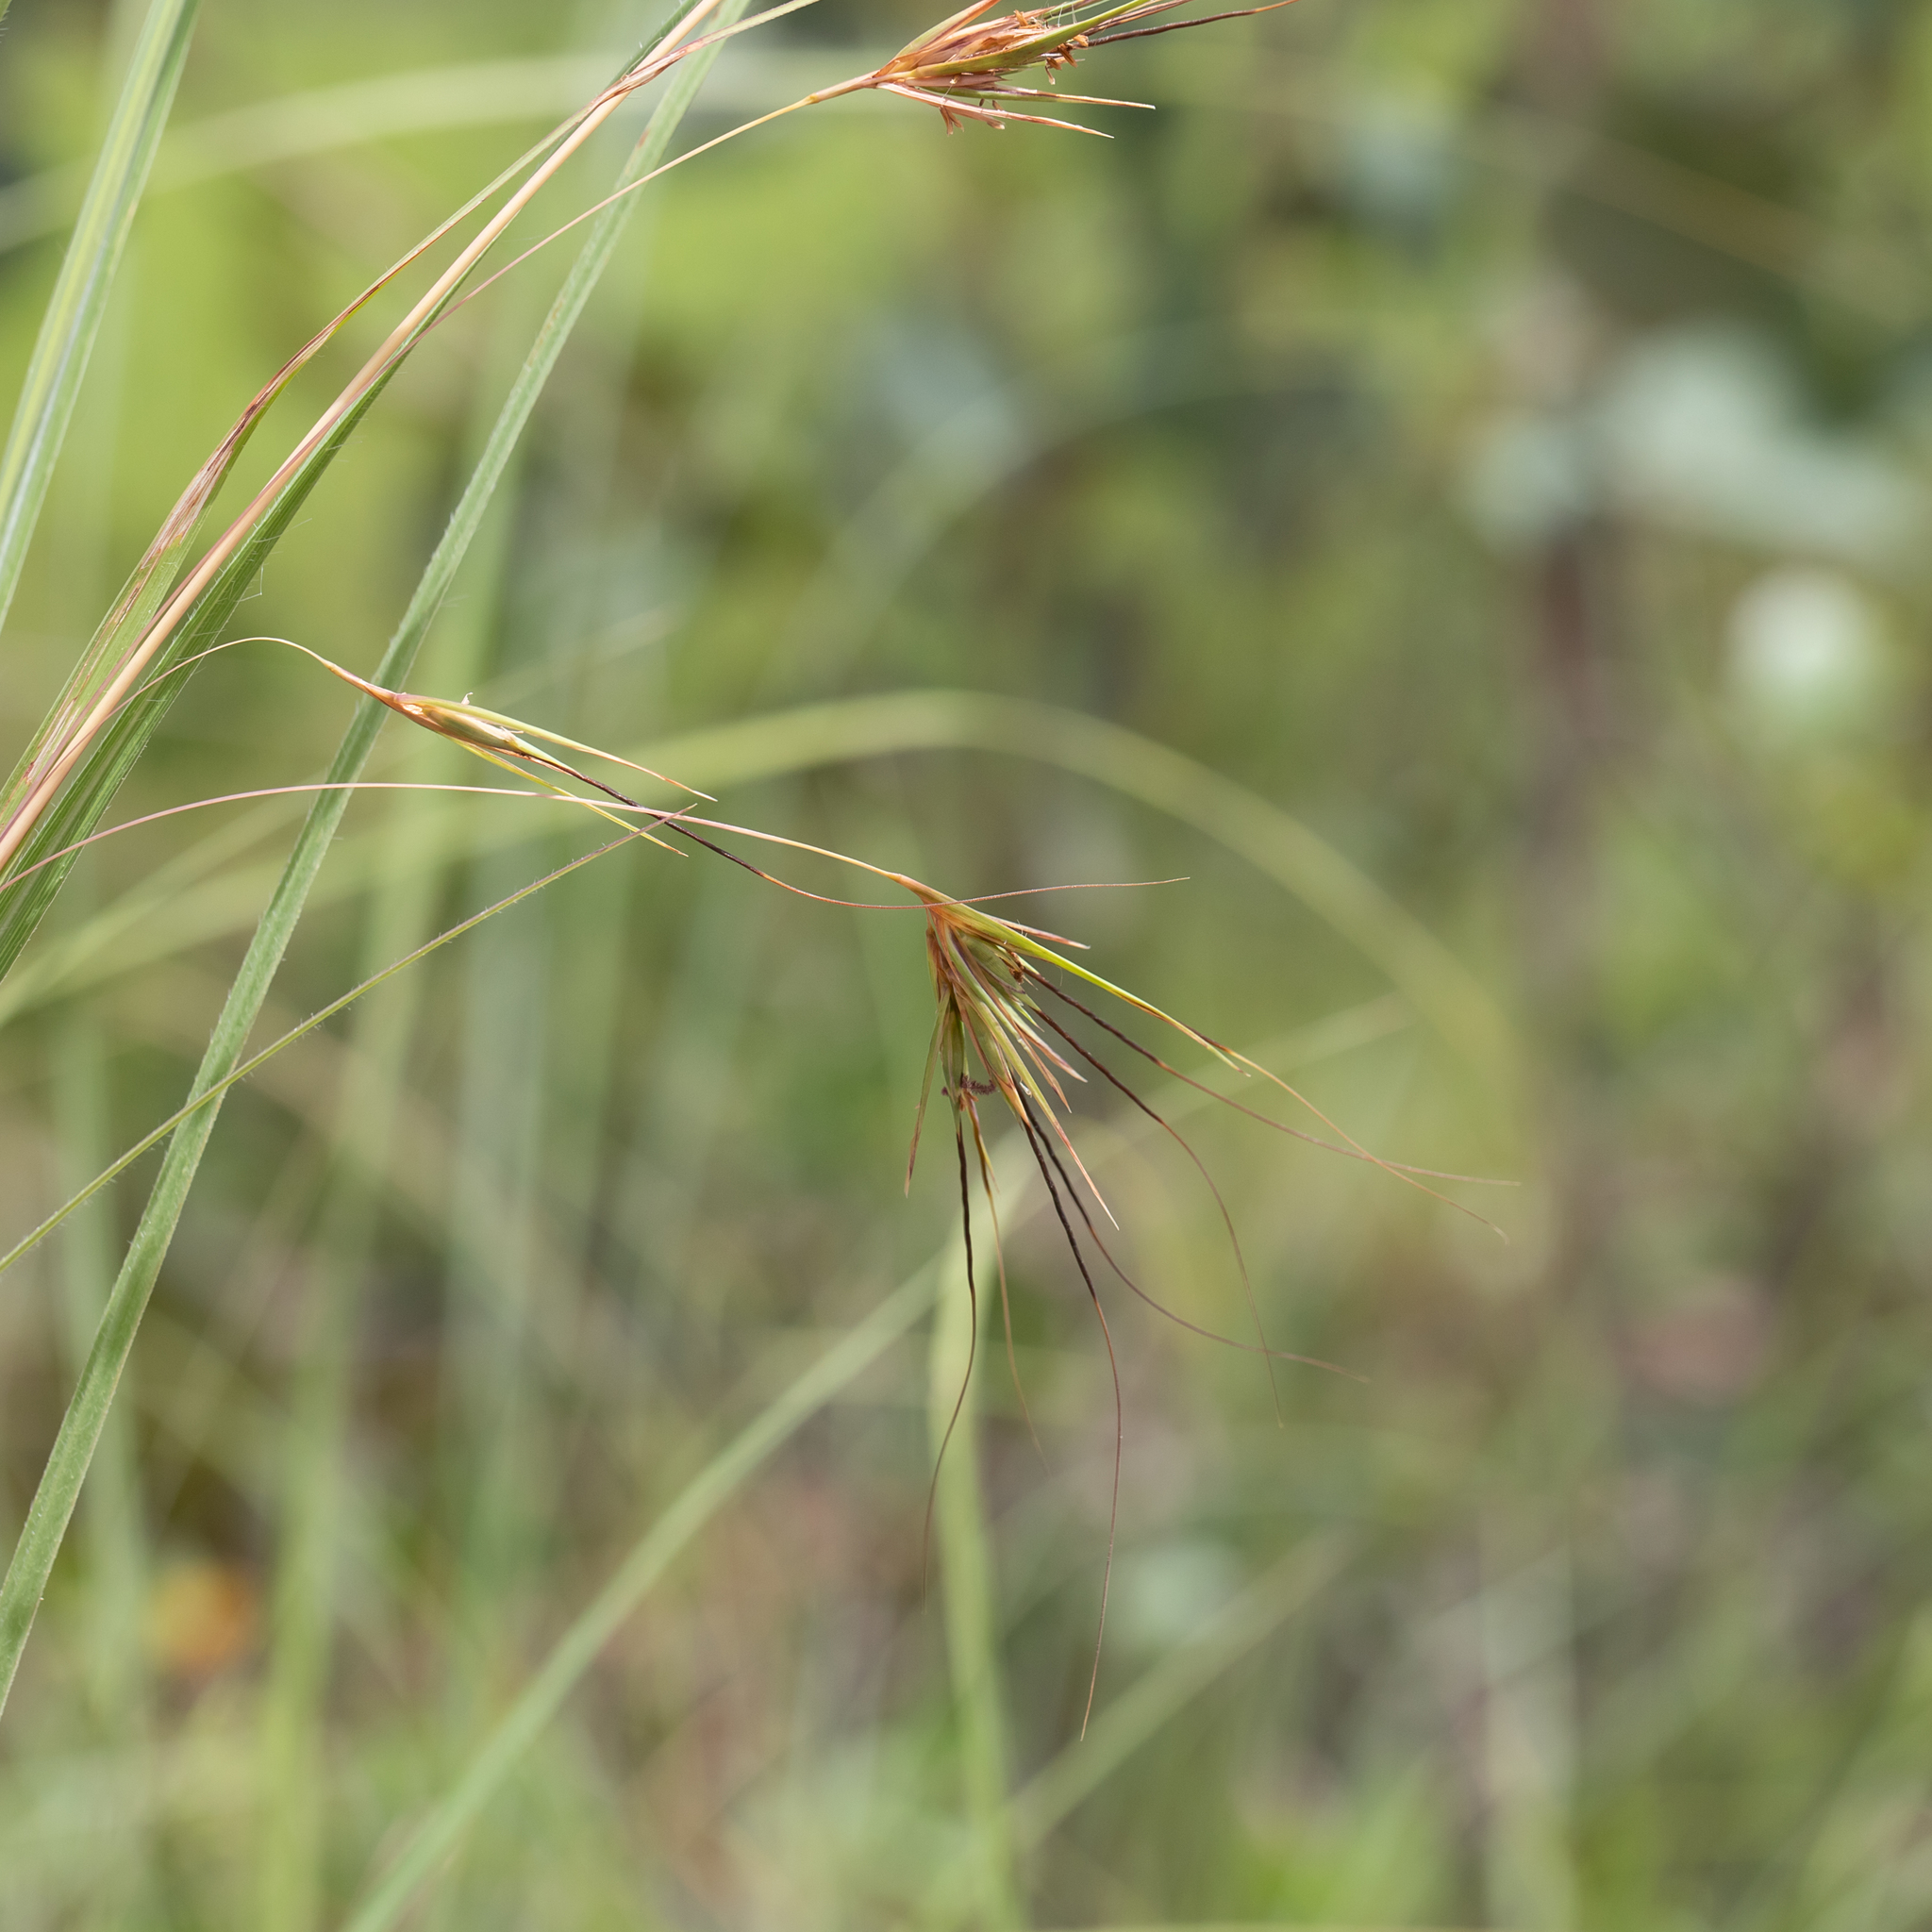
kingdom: Plantae
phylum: Tracheophyta
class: Liliopsida
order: Poales
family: Poaceae
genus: Themeda
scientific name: Themeda triandra
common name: Kangaroo grass
